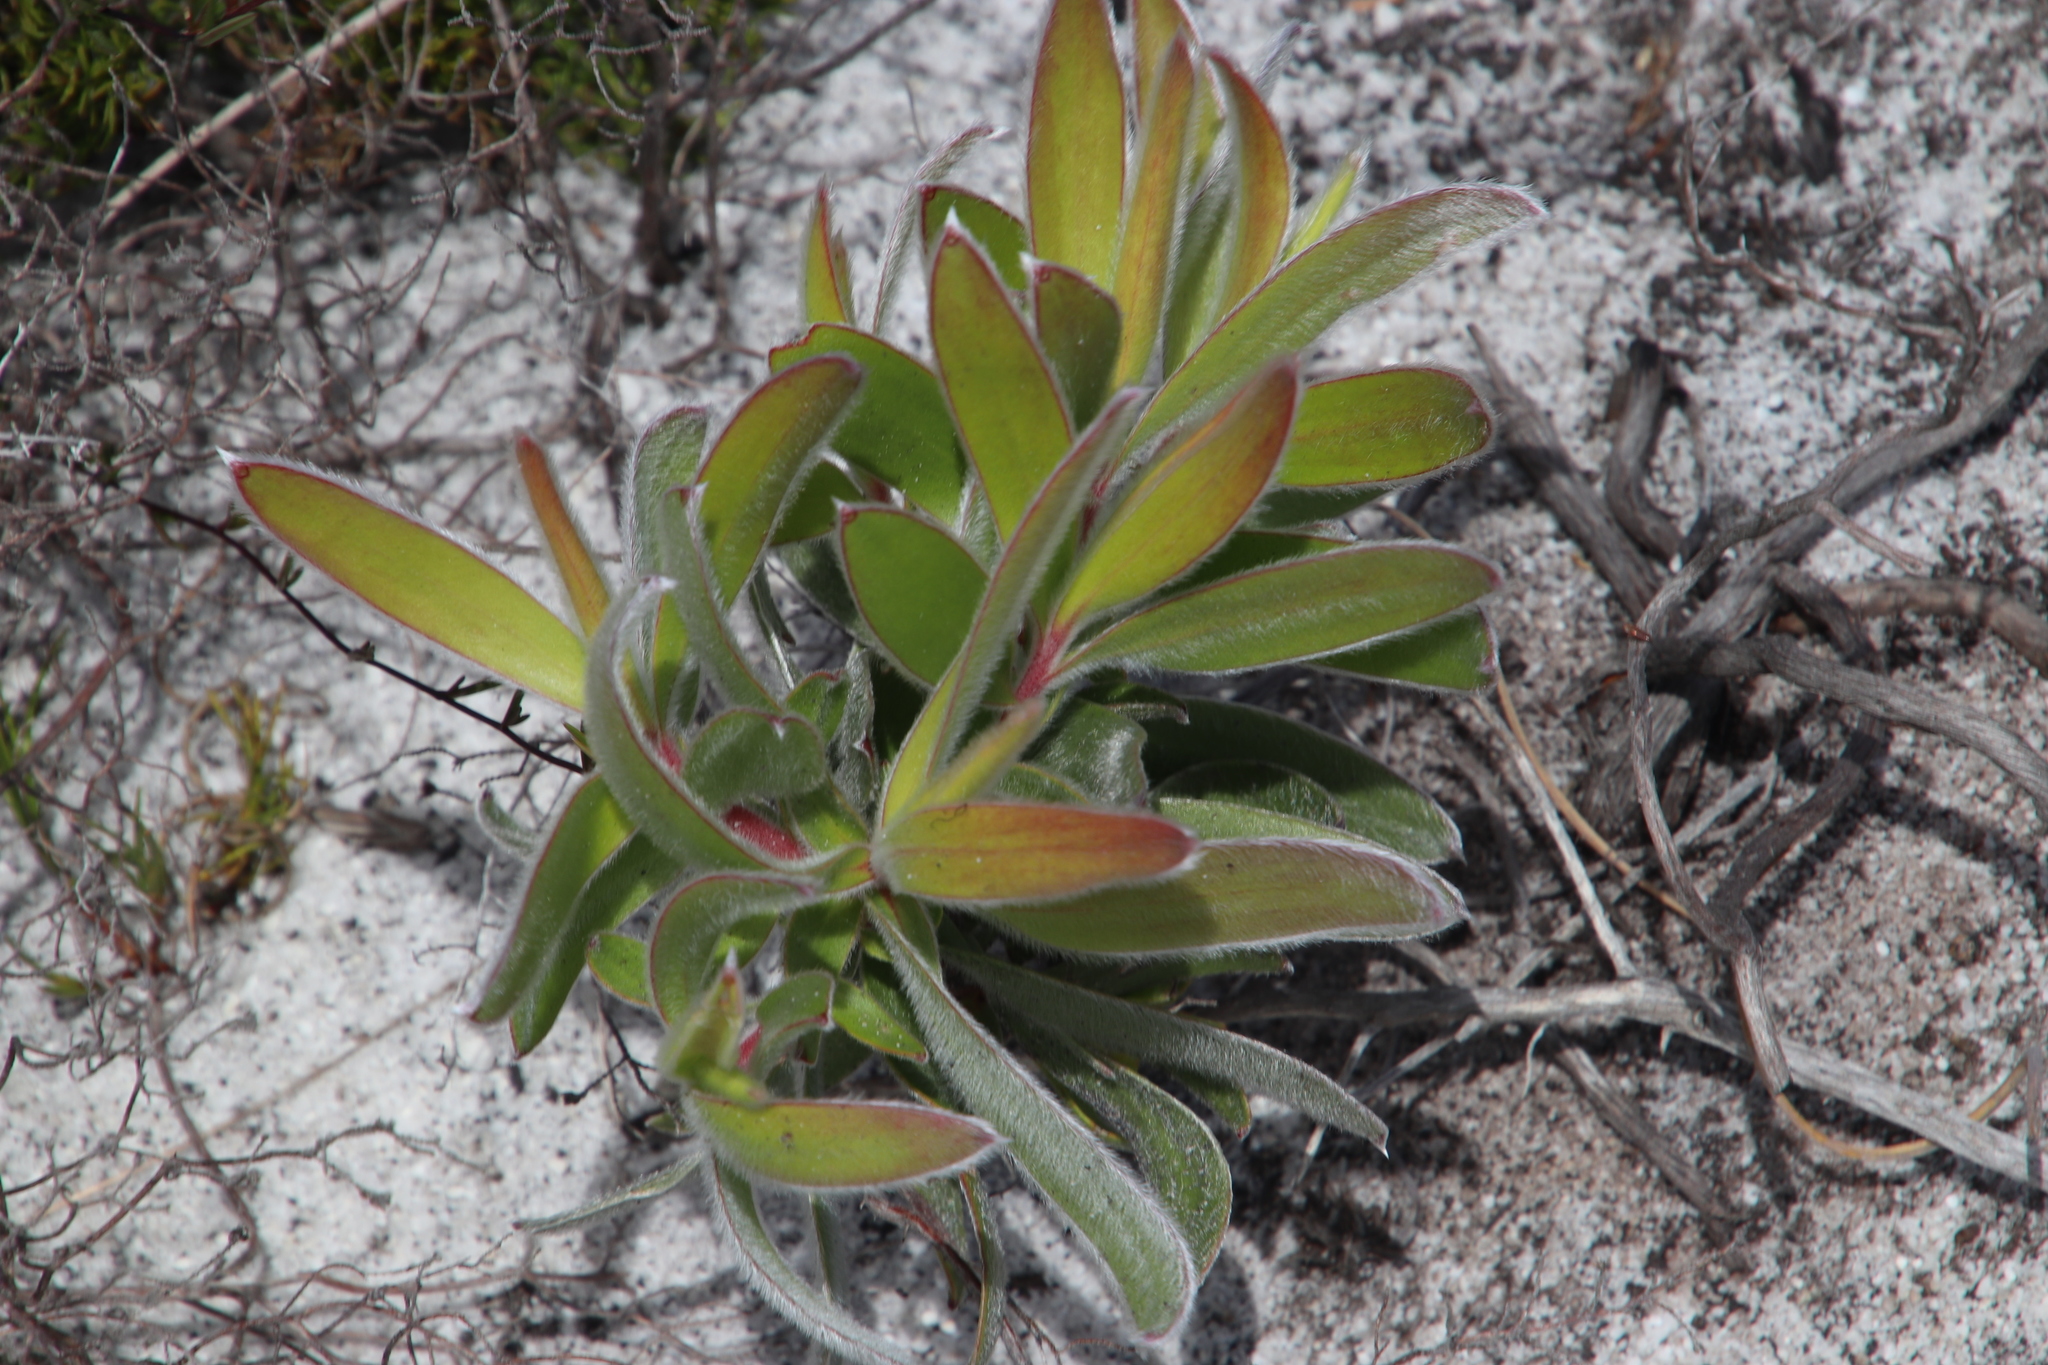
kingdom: Plantae
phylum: Tracheophyta
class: Magnoliopsida
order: Proteales
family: Proteaceae
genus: Leucadendron
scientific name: Leucadendron laureolum
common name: Golden sunshinebush
